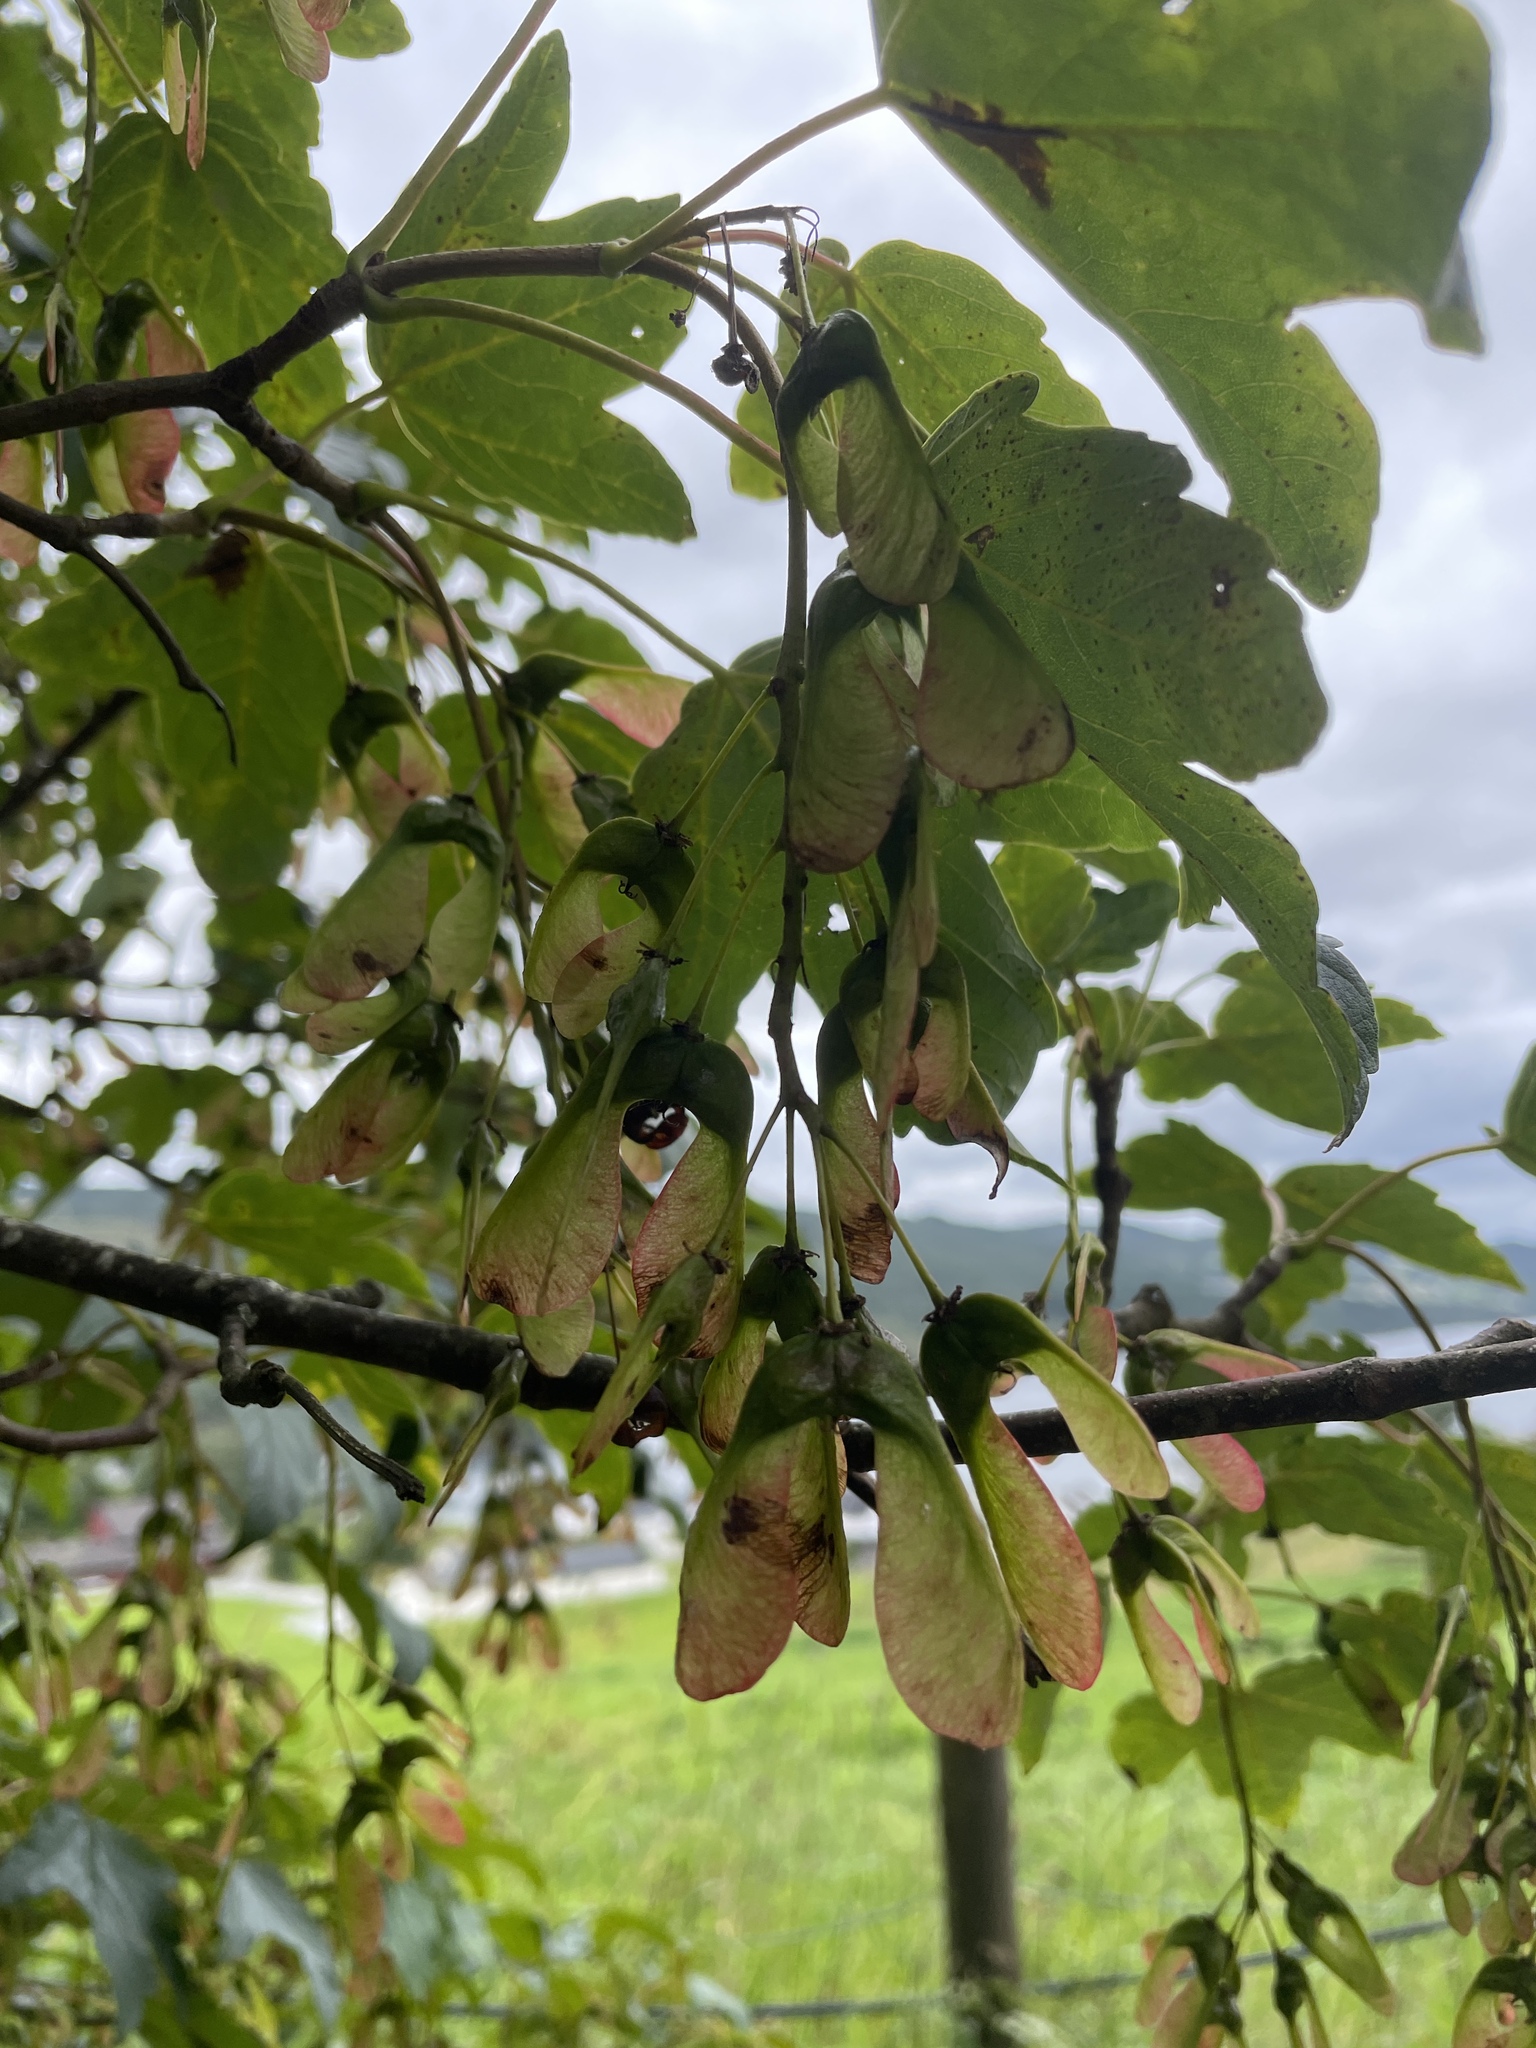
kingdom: Plantae
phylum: Tracheophyta
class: Magnoliopsida
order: Sapindales
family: Sapindaceae
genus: Acer
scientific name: Acer pseudoplatanus
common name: Sycamore
